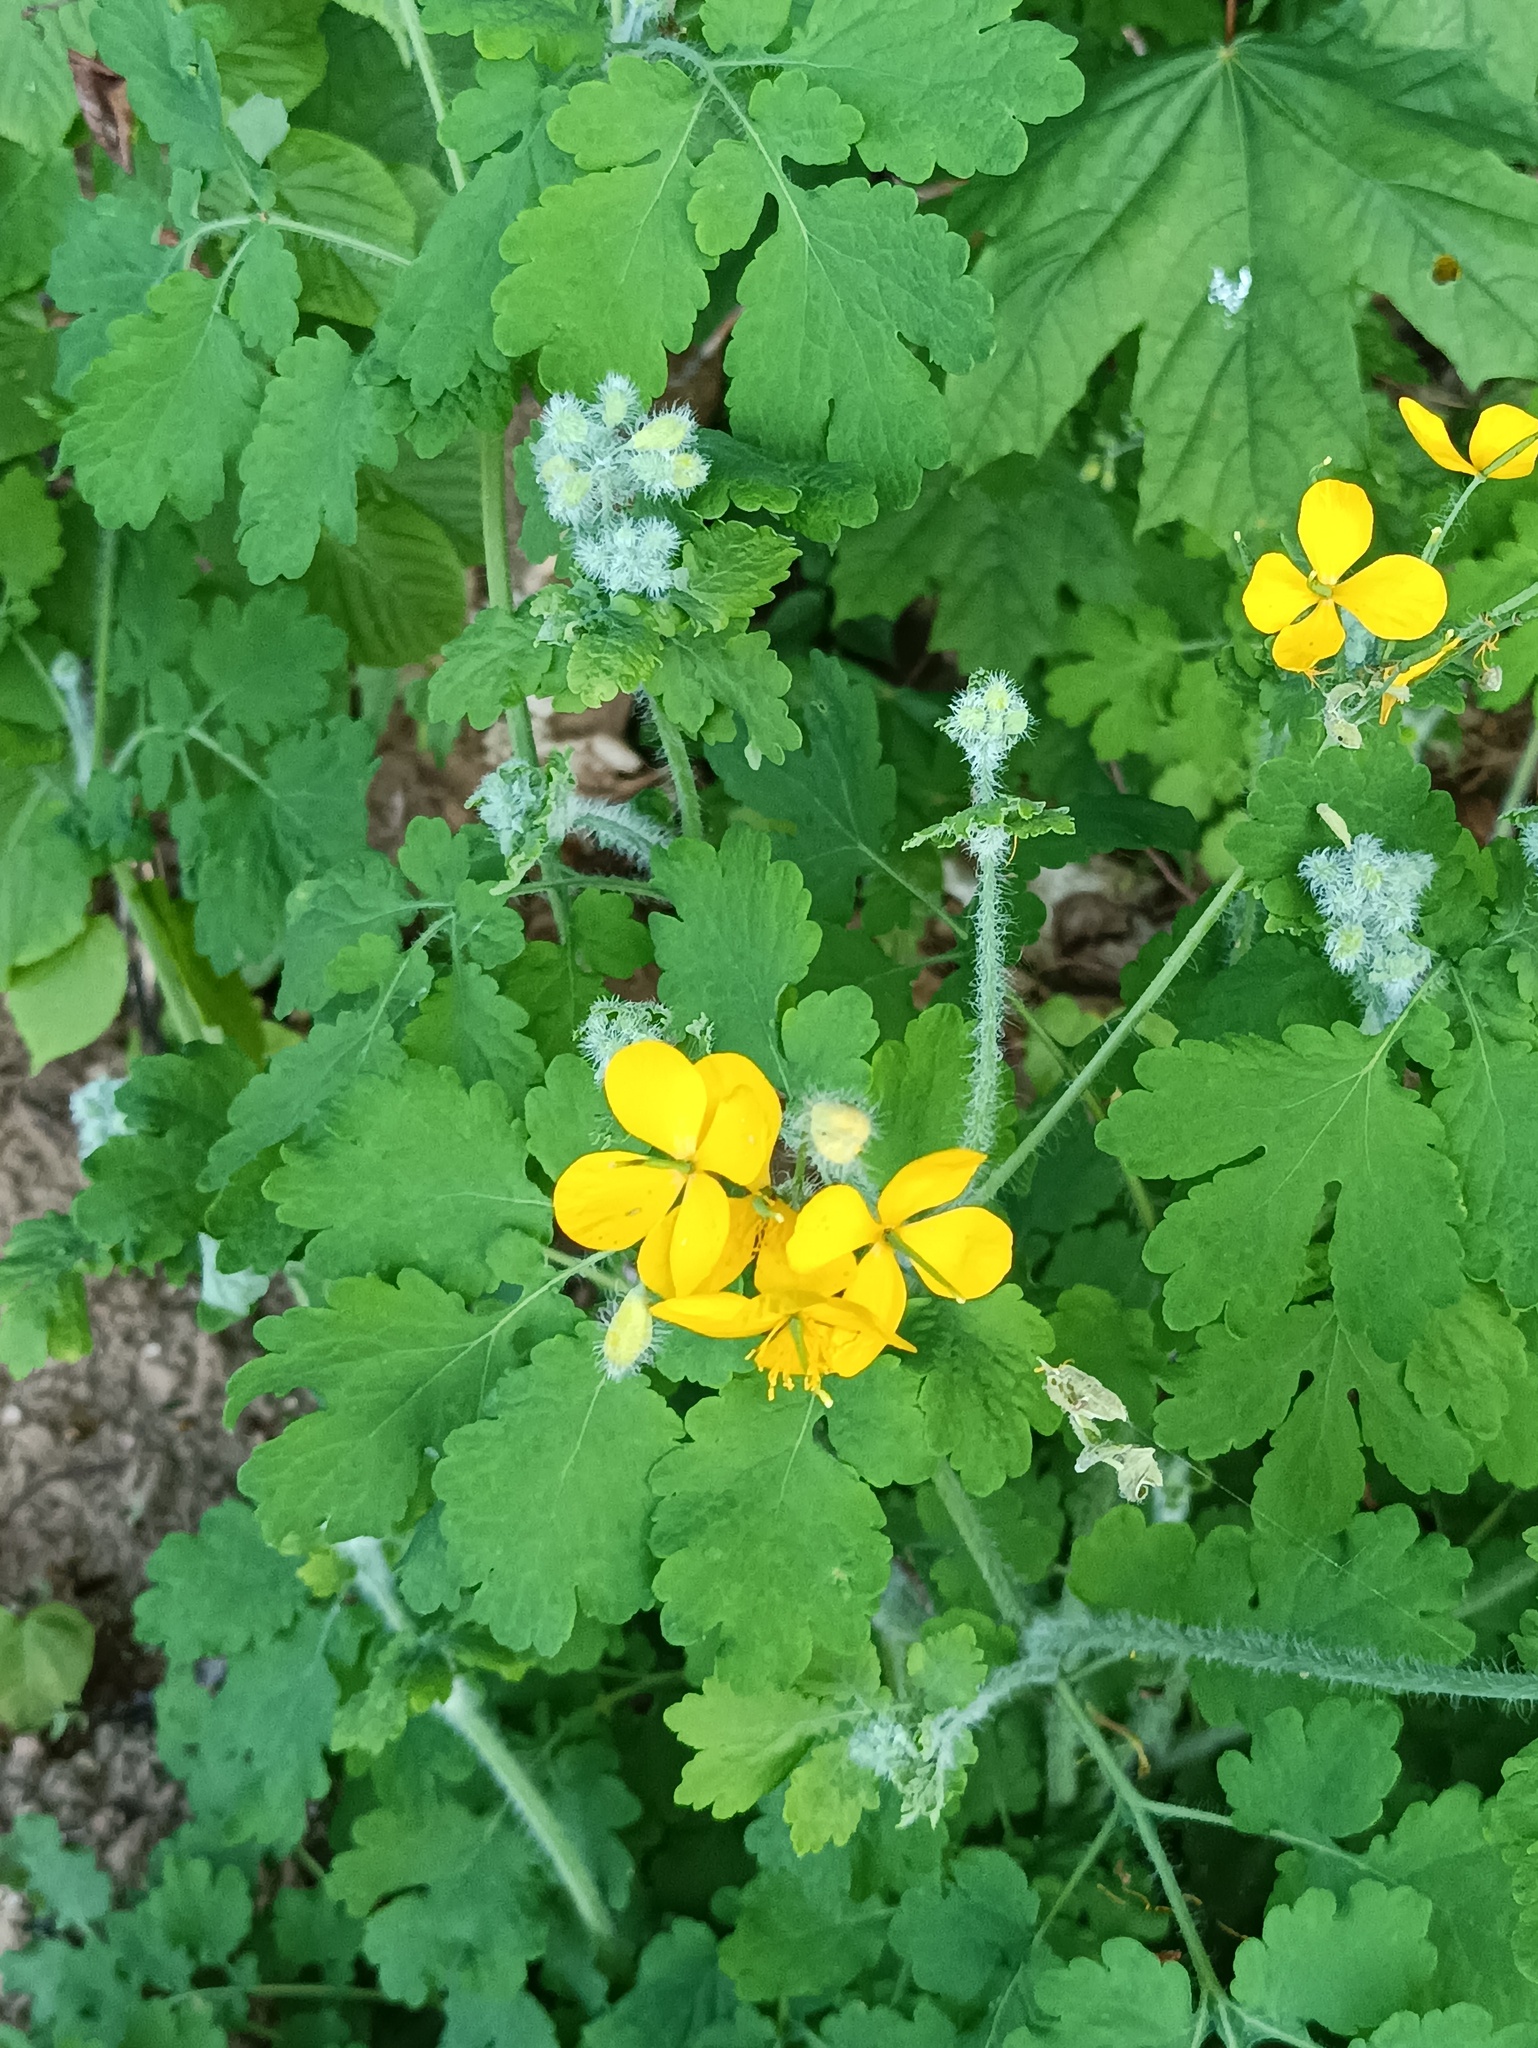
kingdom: Plantae
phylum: Tracheophyta
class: Magnoliopsida
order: Ranunculales
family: Papaveraceae
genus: Chelidonium
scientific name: Chelidonium majus
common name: Greater celandine
